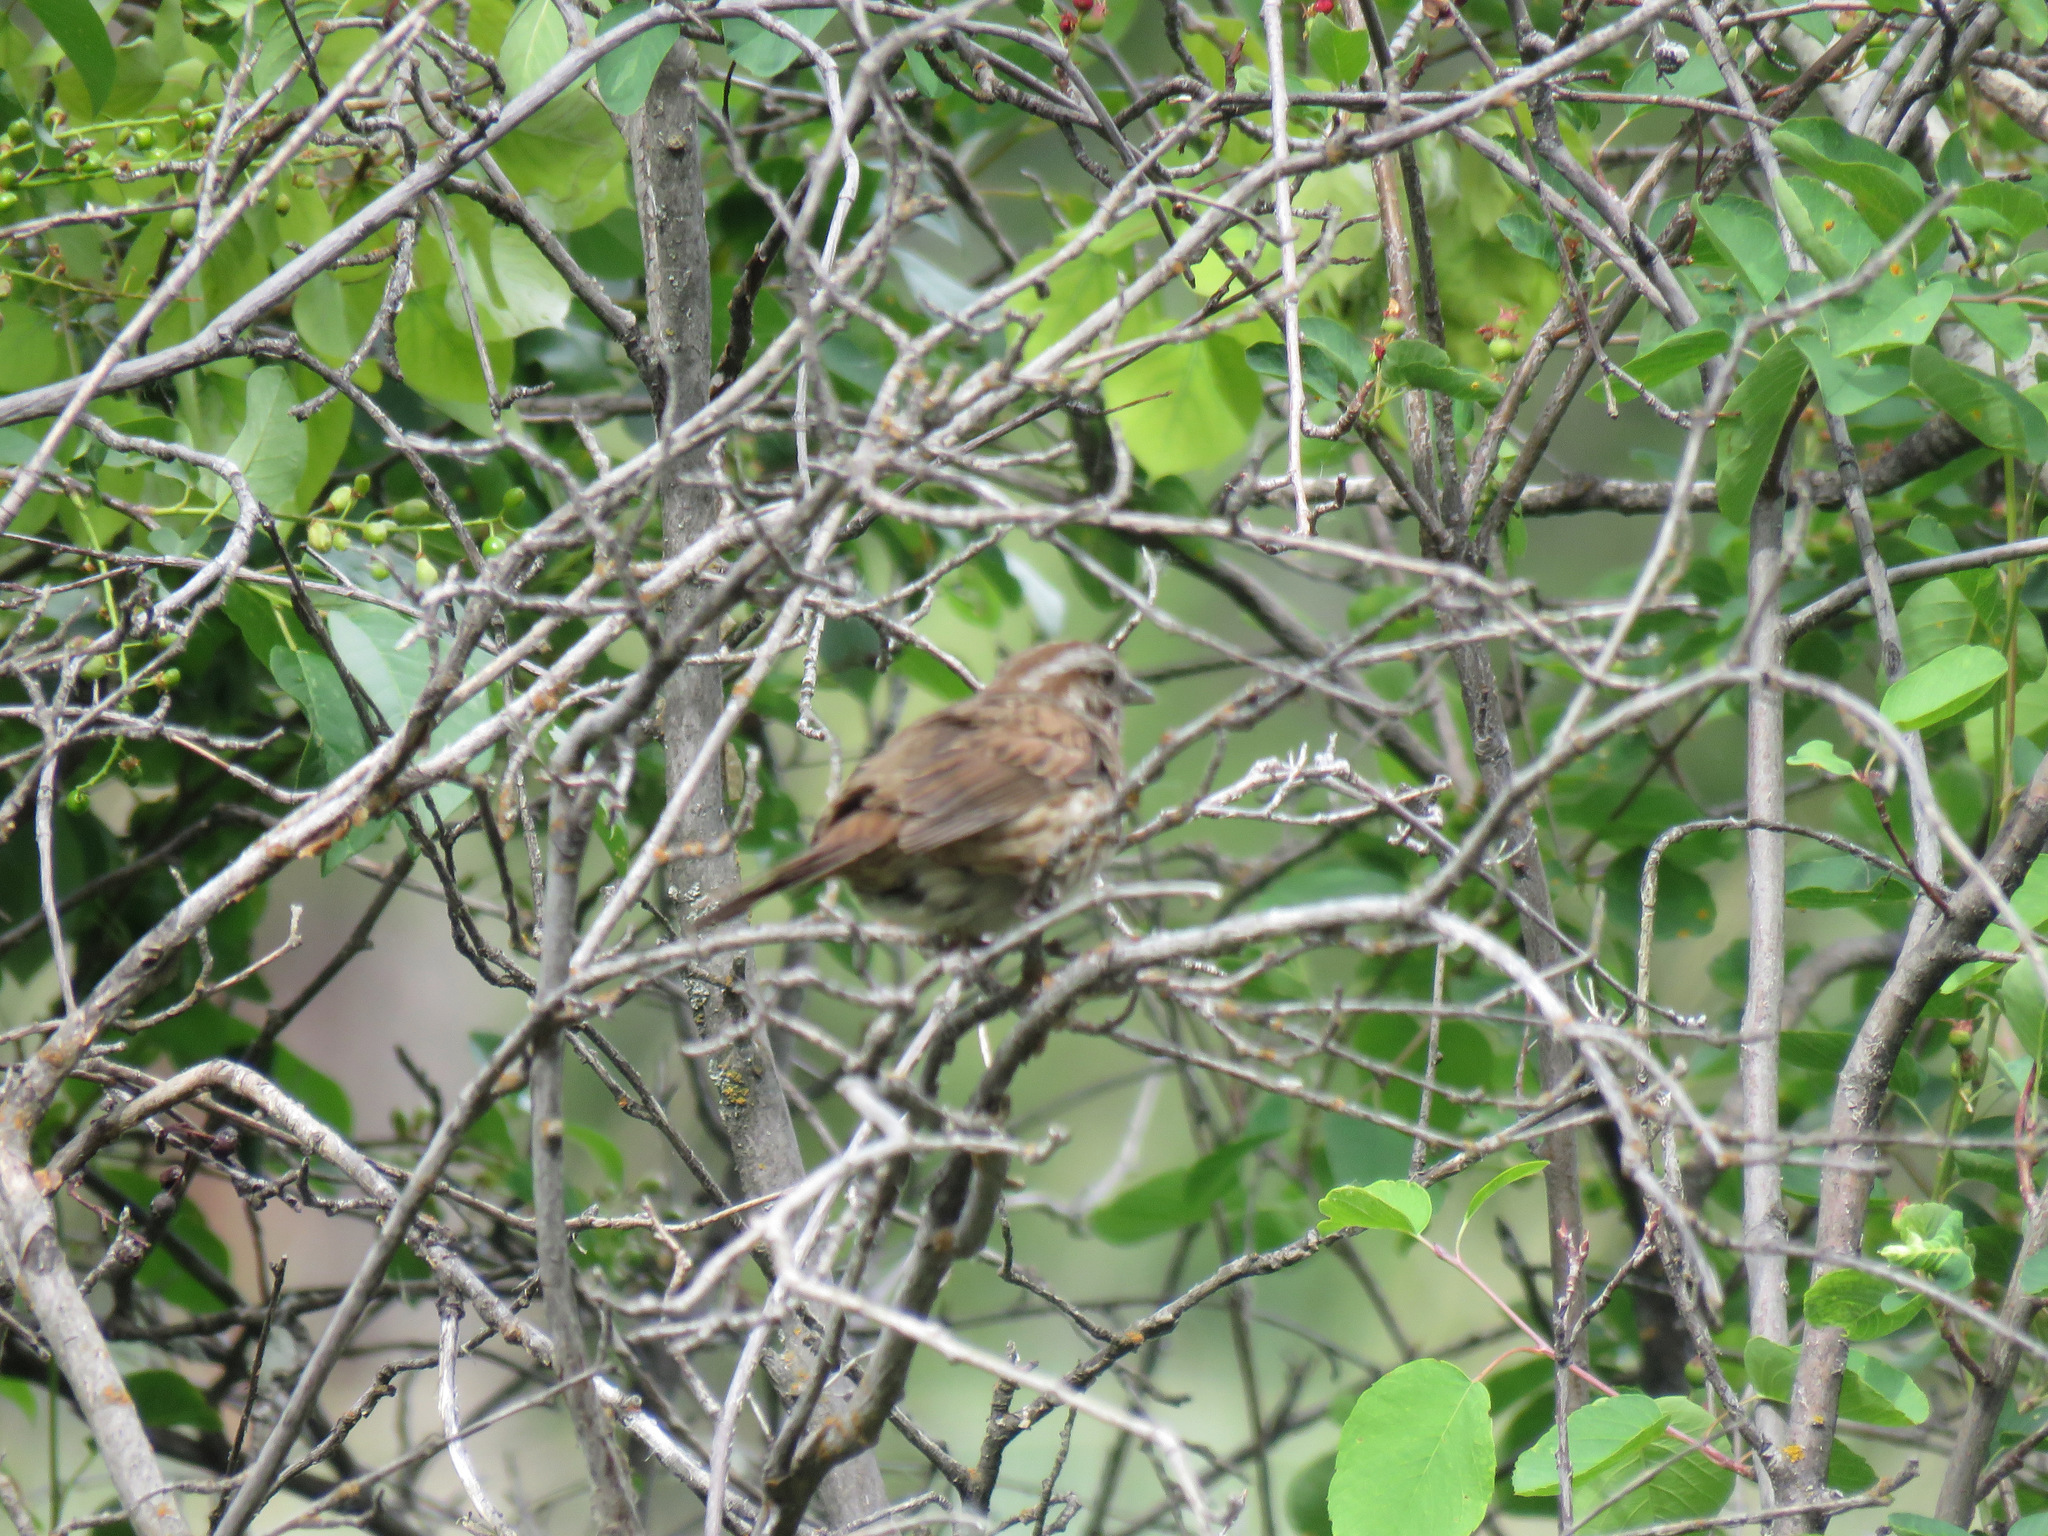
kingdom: Animalia
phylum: Chordata
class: Aves
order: Passeriformes
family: Passerellidae
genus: Melospiza
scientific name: Melospiza melodia
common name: Song sparrow
